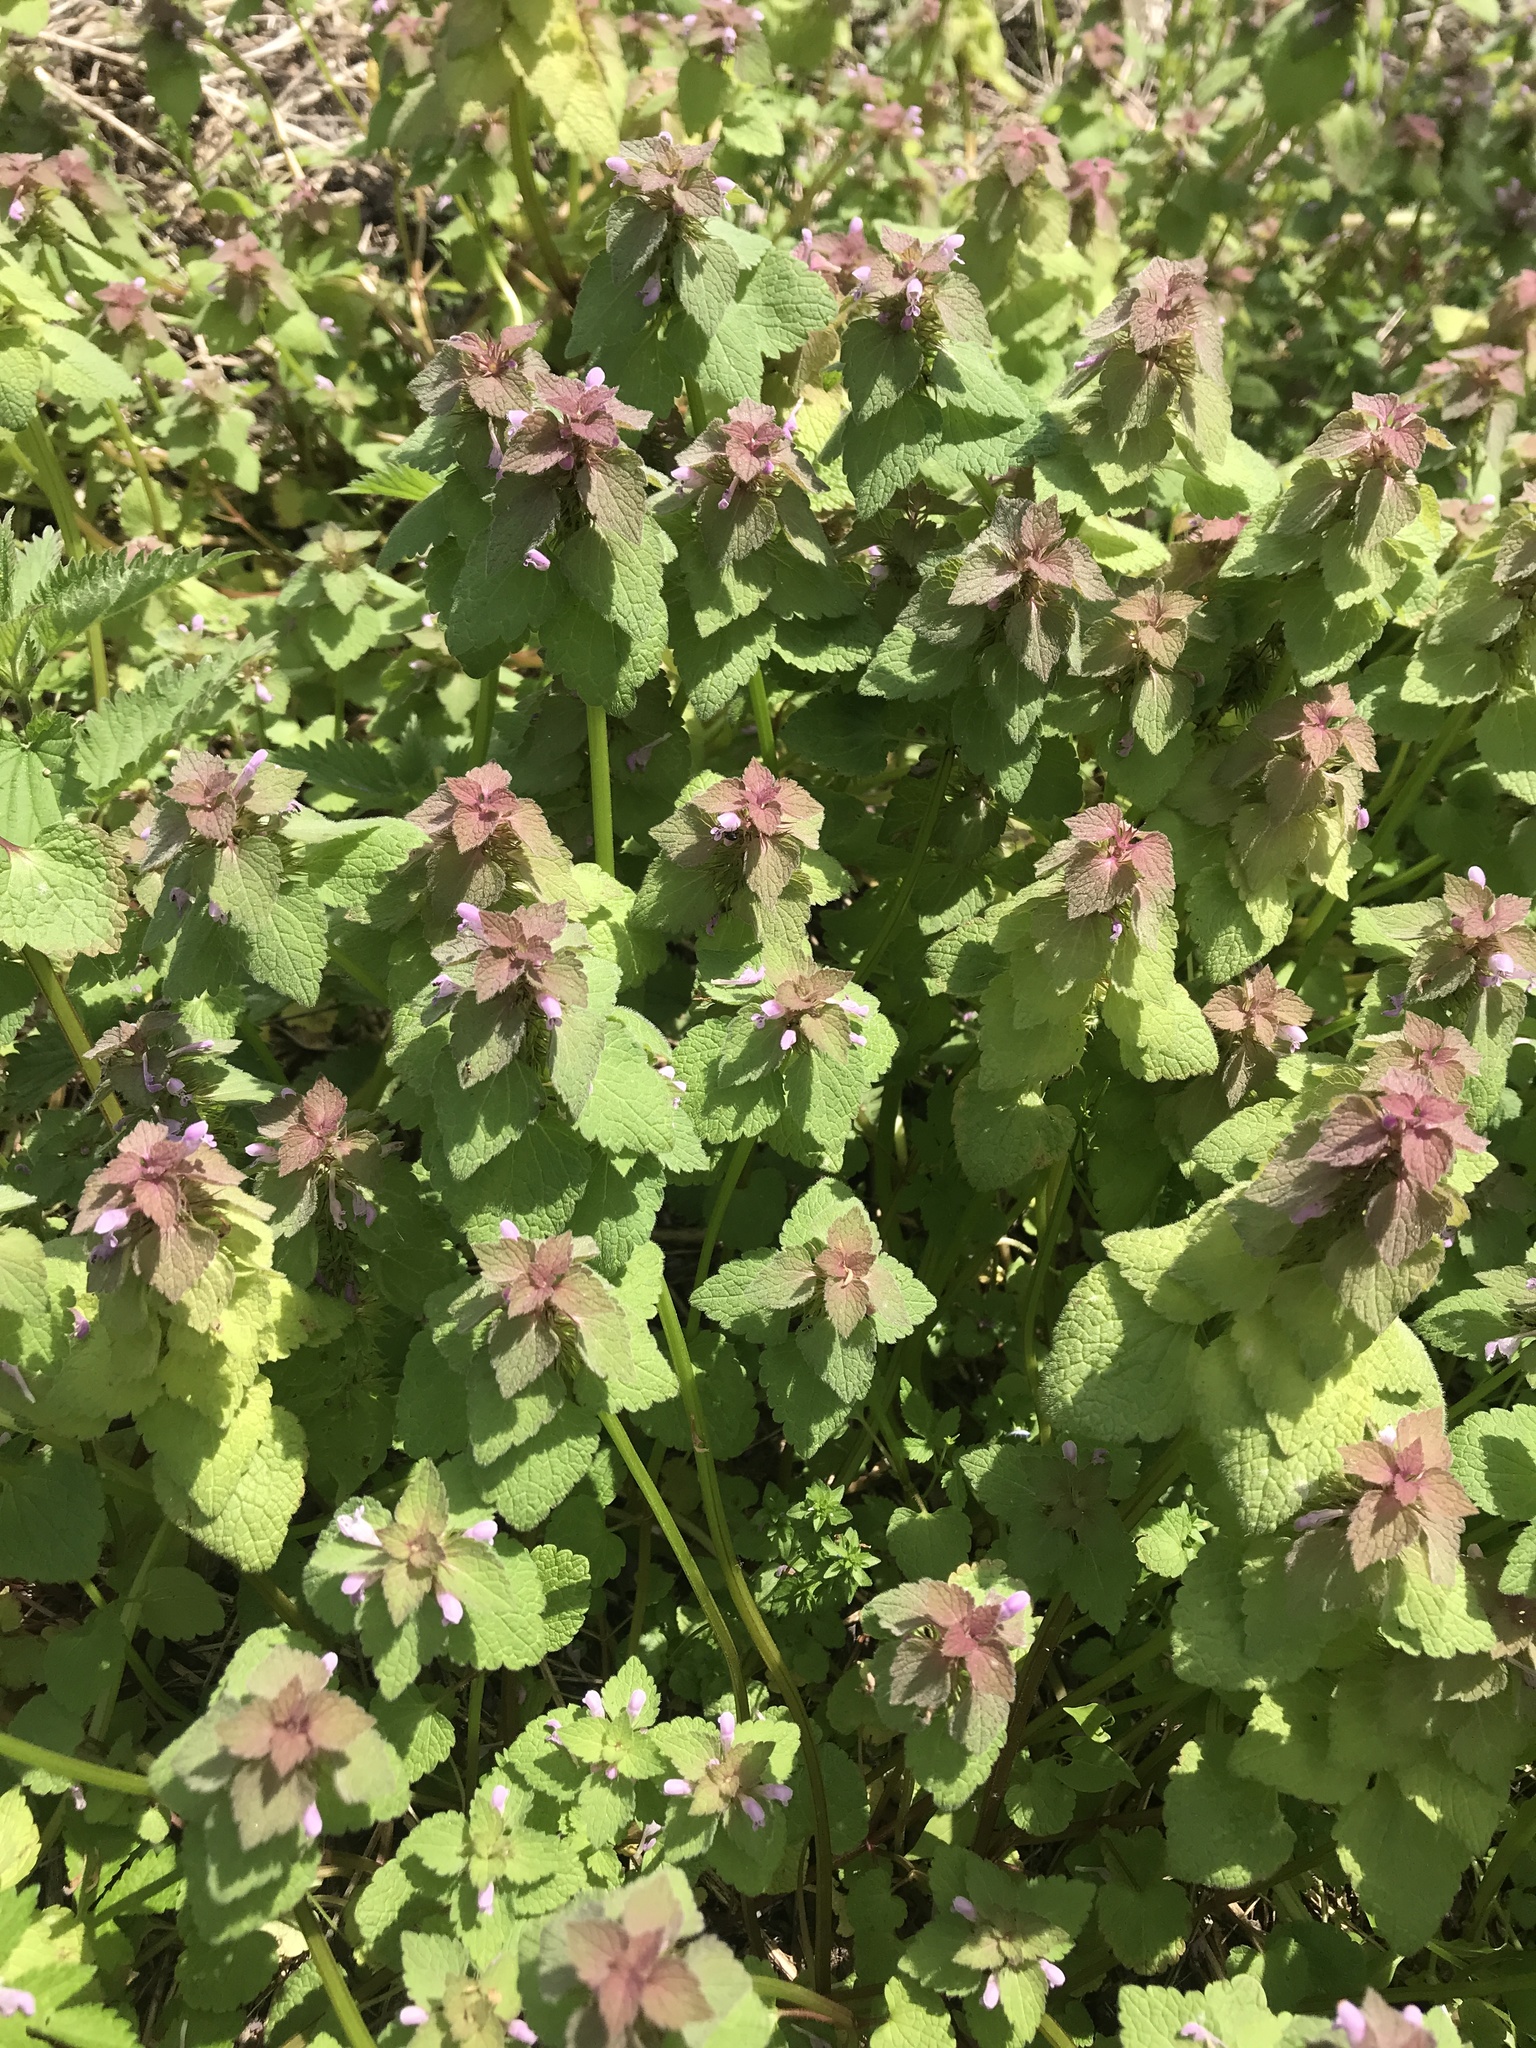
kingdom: Plantae
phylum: Tracheophyta
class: Magnoliopsida
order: Lamiales
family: Lamiaceae
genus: Lamium
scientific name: Lamium purpureum
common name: Red dead-nettle
